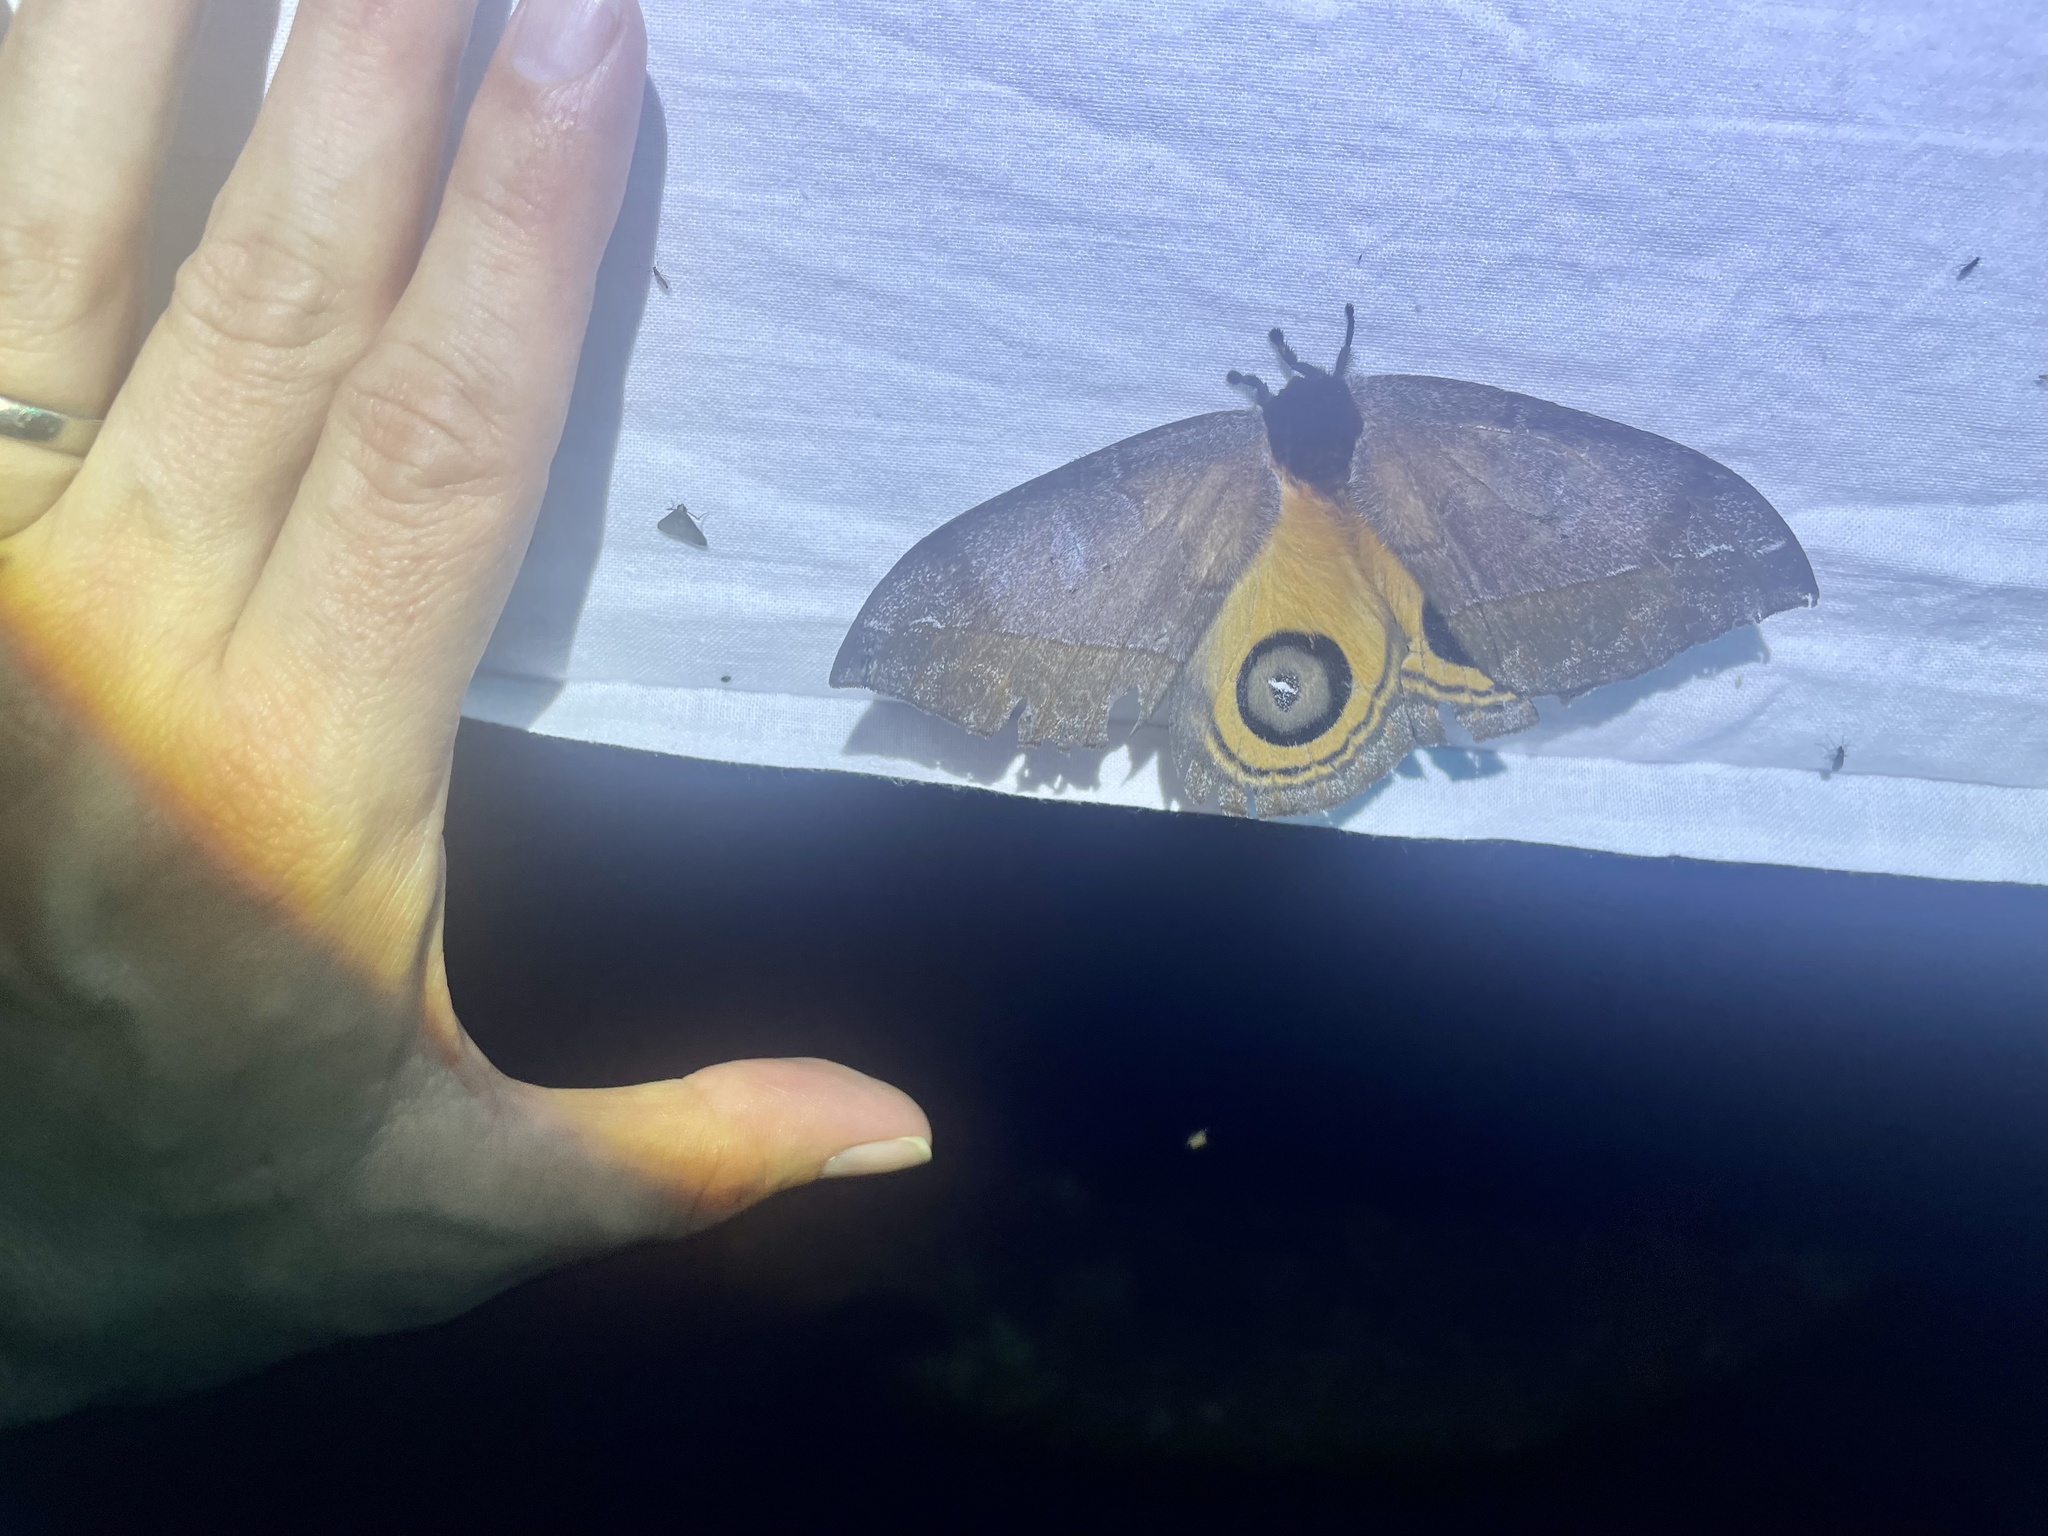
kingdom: Animalia
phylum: Arthropoda
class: Insecta
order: Lepidoptera
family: Saturniidae
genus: Automeris
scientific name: Automeris argentifera
